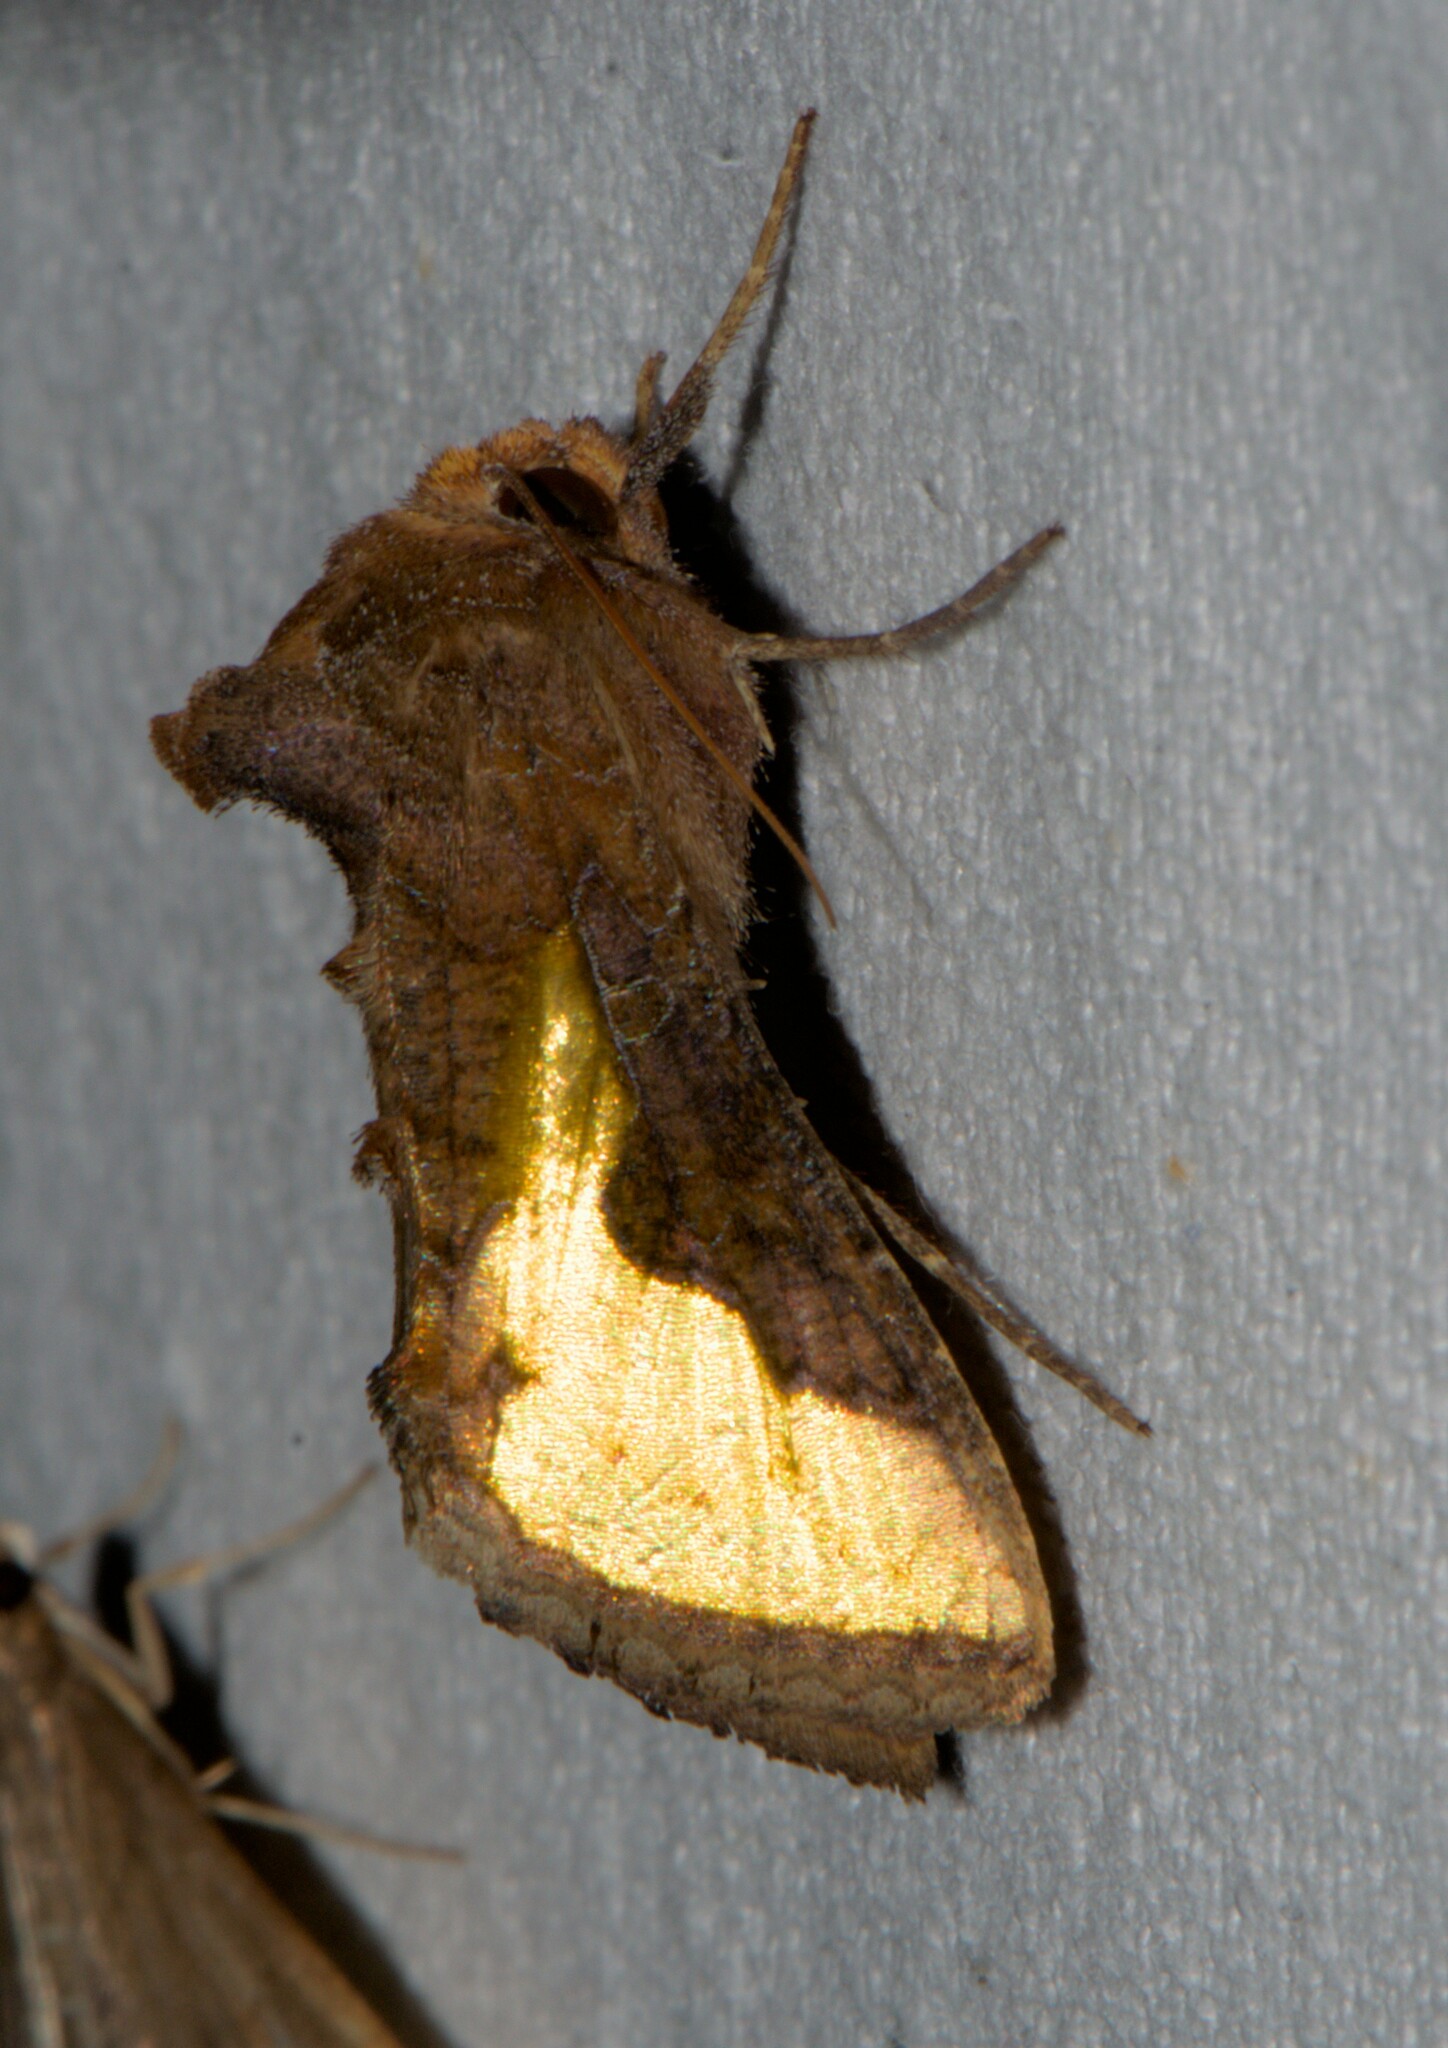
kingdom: Animalia
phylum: Arthropoda
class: Insecta
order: Lepidoptera
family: Noctuidae
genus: Thysanoplusia
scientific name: Thysanoplusia orichalcea
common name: Slender burnished brass, golden plusia
